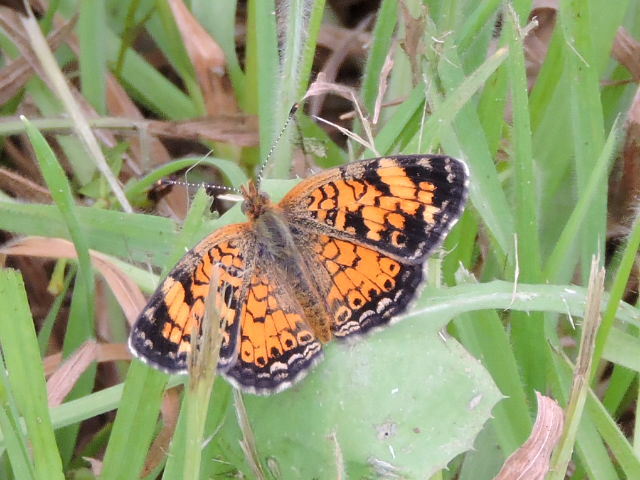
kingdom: Animalia
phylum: Arthropoda
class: Insecta
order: Lepidoptera
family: Nymphalidae
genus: Phyciodes
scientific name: Phyciodes tharos
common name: Pearl crescent
